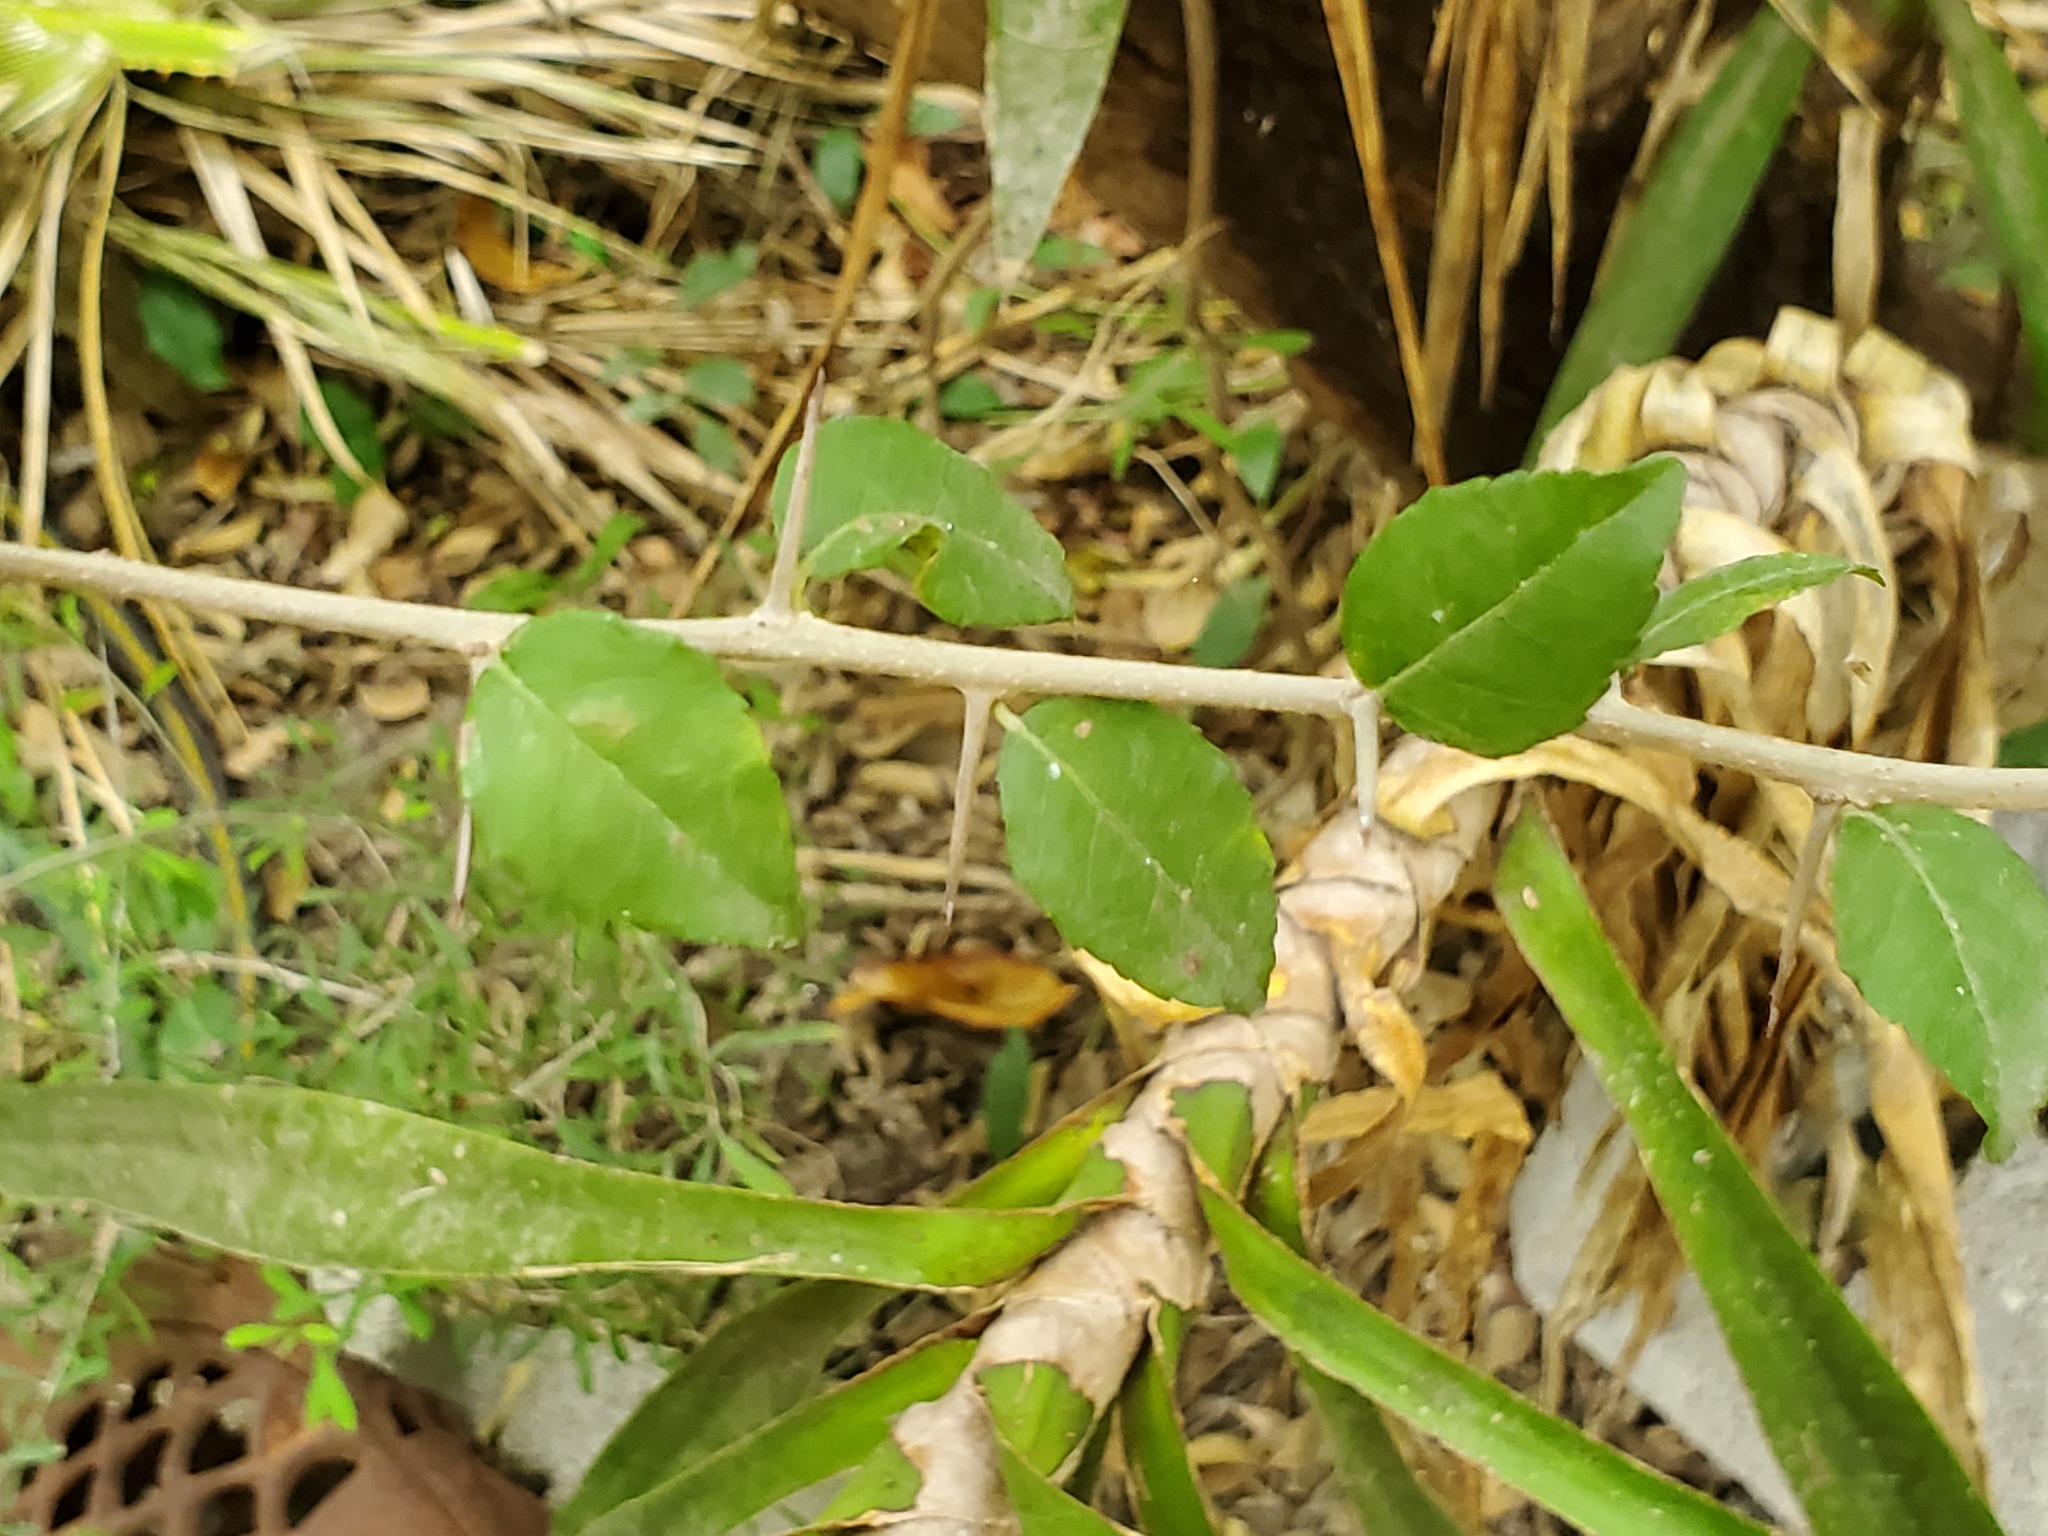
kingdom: Plantae
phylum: Tracheophyta
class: Magnoliopsida
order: Malpighiales
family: Salicaceae
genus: Xylosma
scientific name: Xylosma flexuosa
